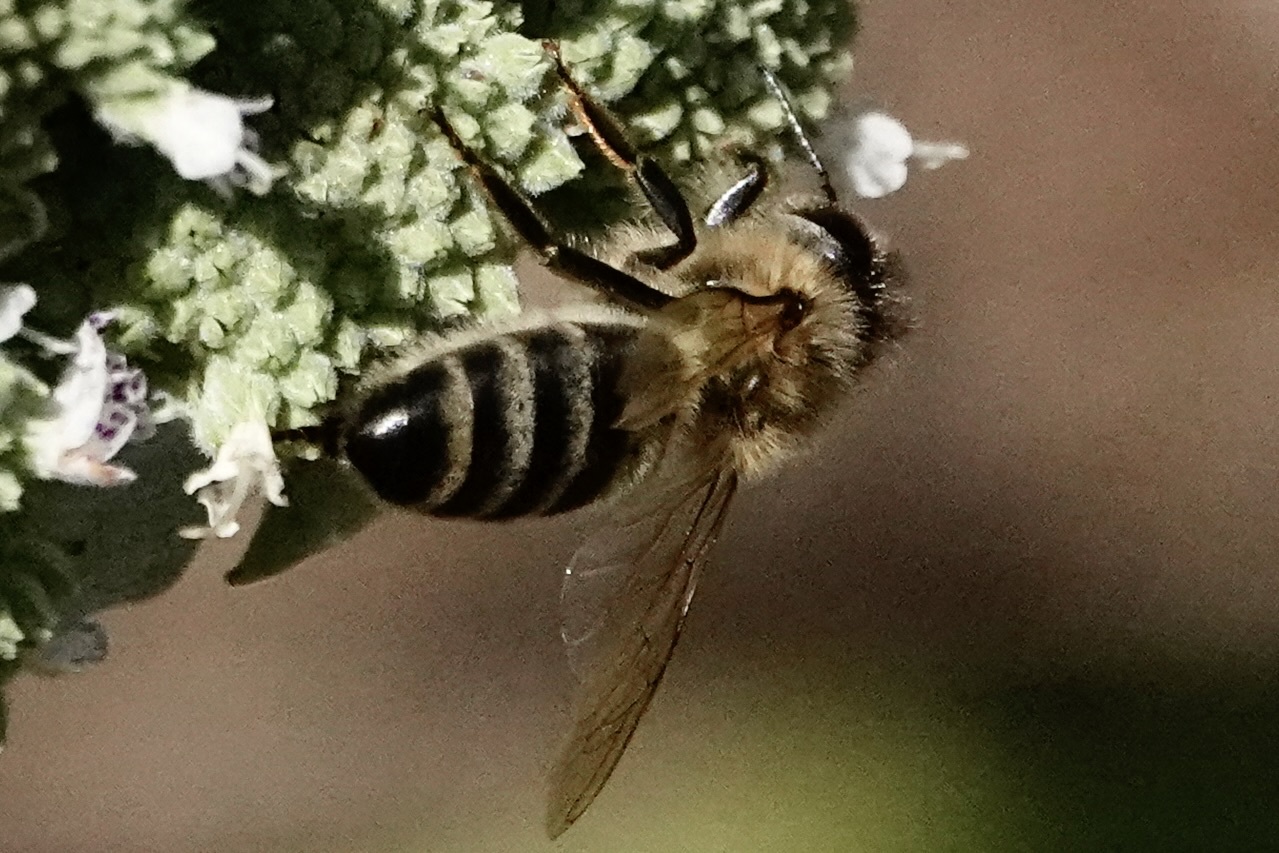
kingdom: Animalia
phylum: Arthropoda
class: Insecta
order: Hymenoptera
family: Apidae
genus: Apis
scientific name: Apis mellifera
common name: Honey bee
